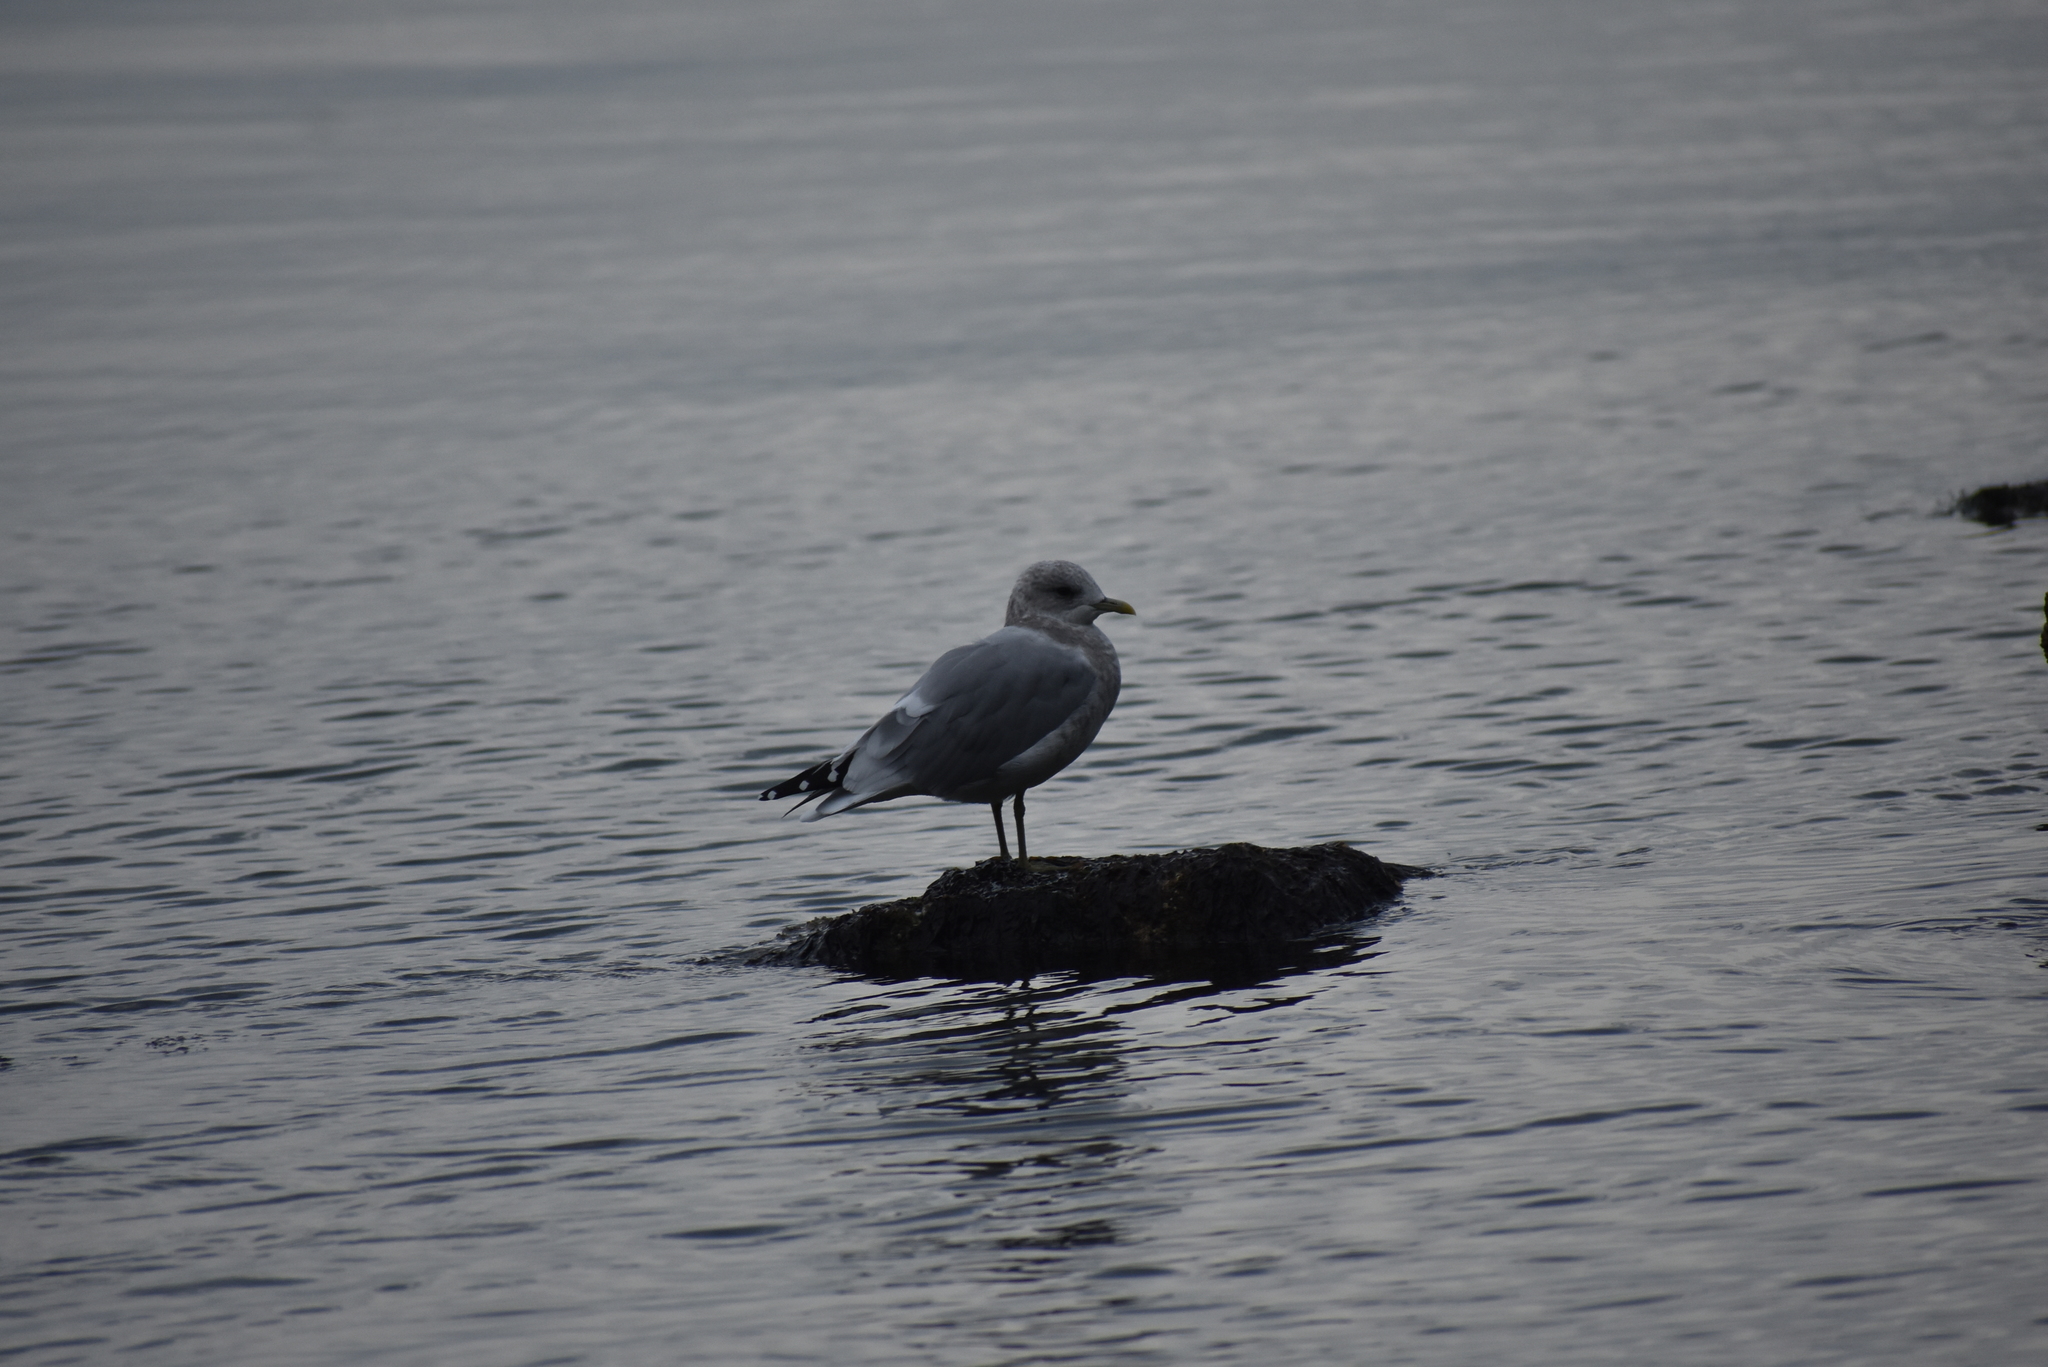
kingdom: Animalia
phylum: Chordata
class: Aves
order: Charadriiformes
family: Laridae
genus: Larus
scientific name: Larus brachyrhynchus
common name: Short-billed gull
